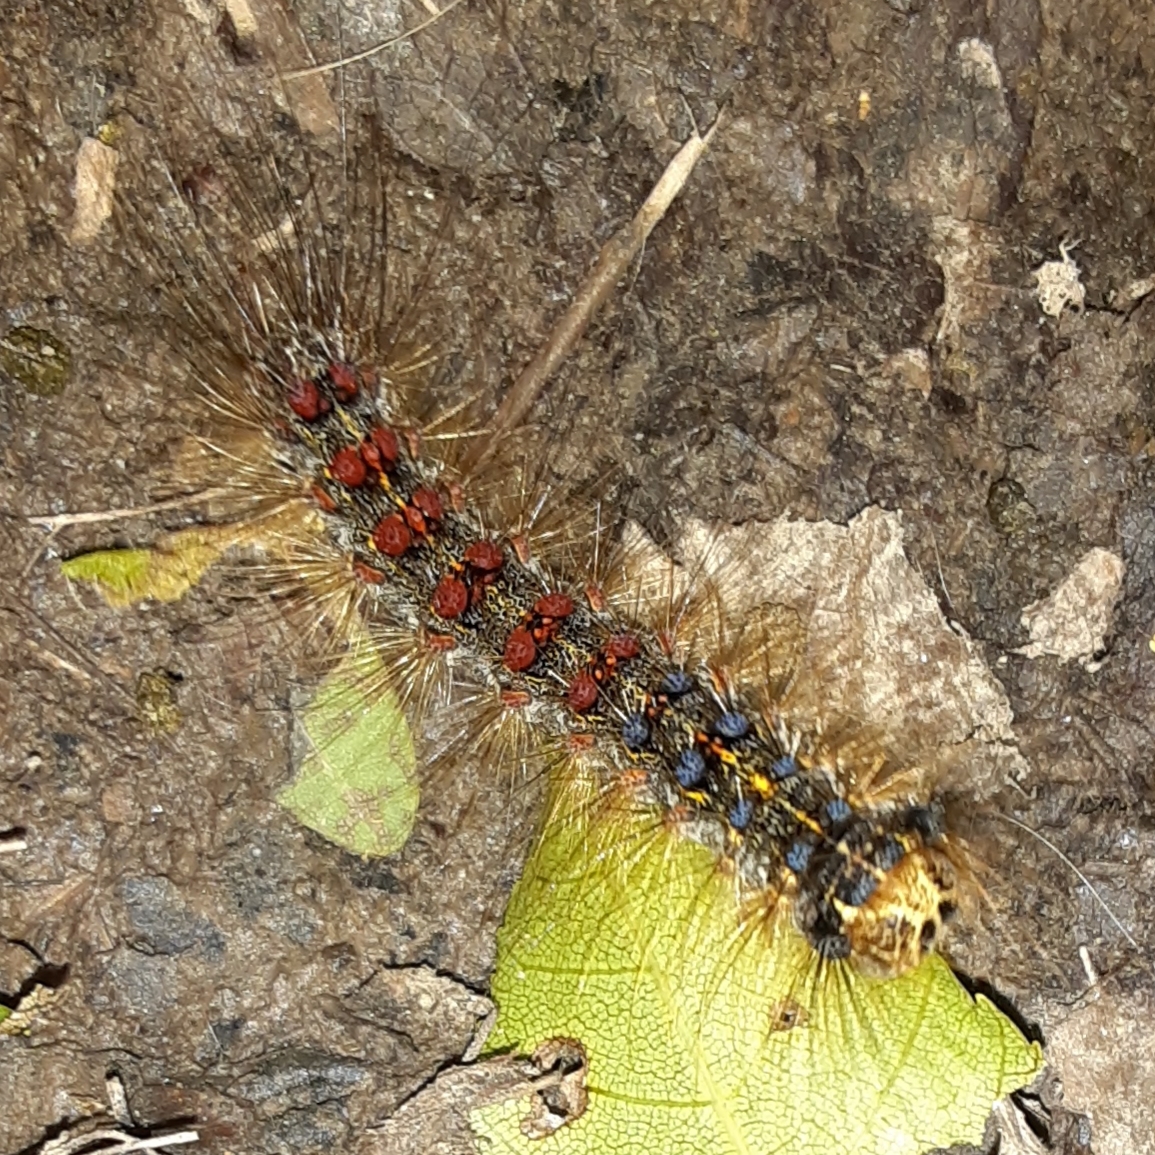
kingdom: Animalia
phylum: Arthropoda
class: Insecta
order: Lepidoptera
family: Erebidae
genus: Lymantria
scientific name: Lymantria dispar
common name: Gypsy moth
